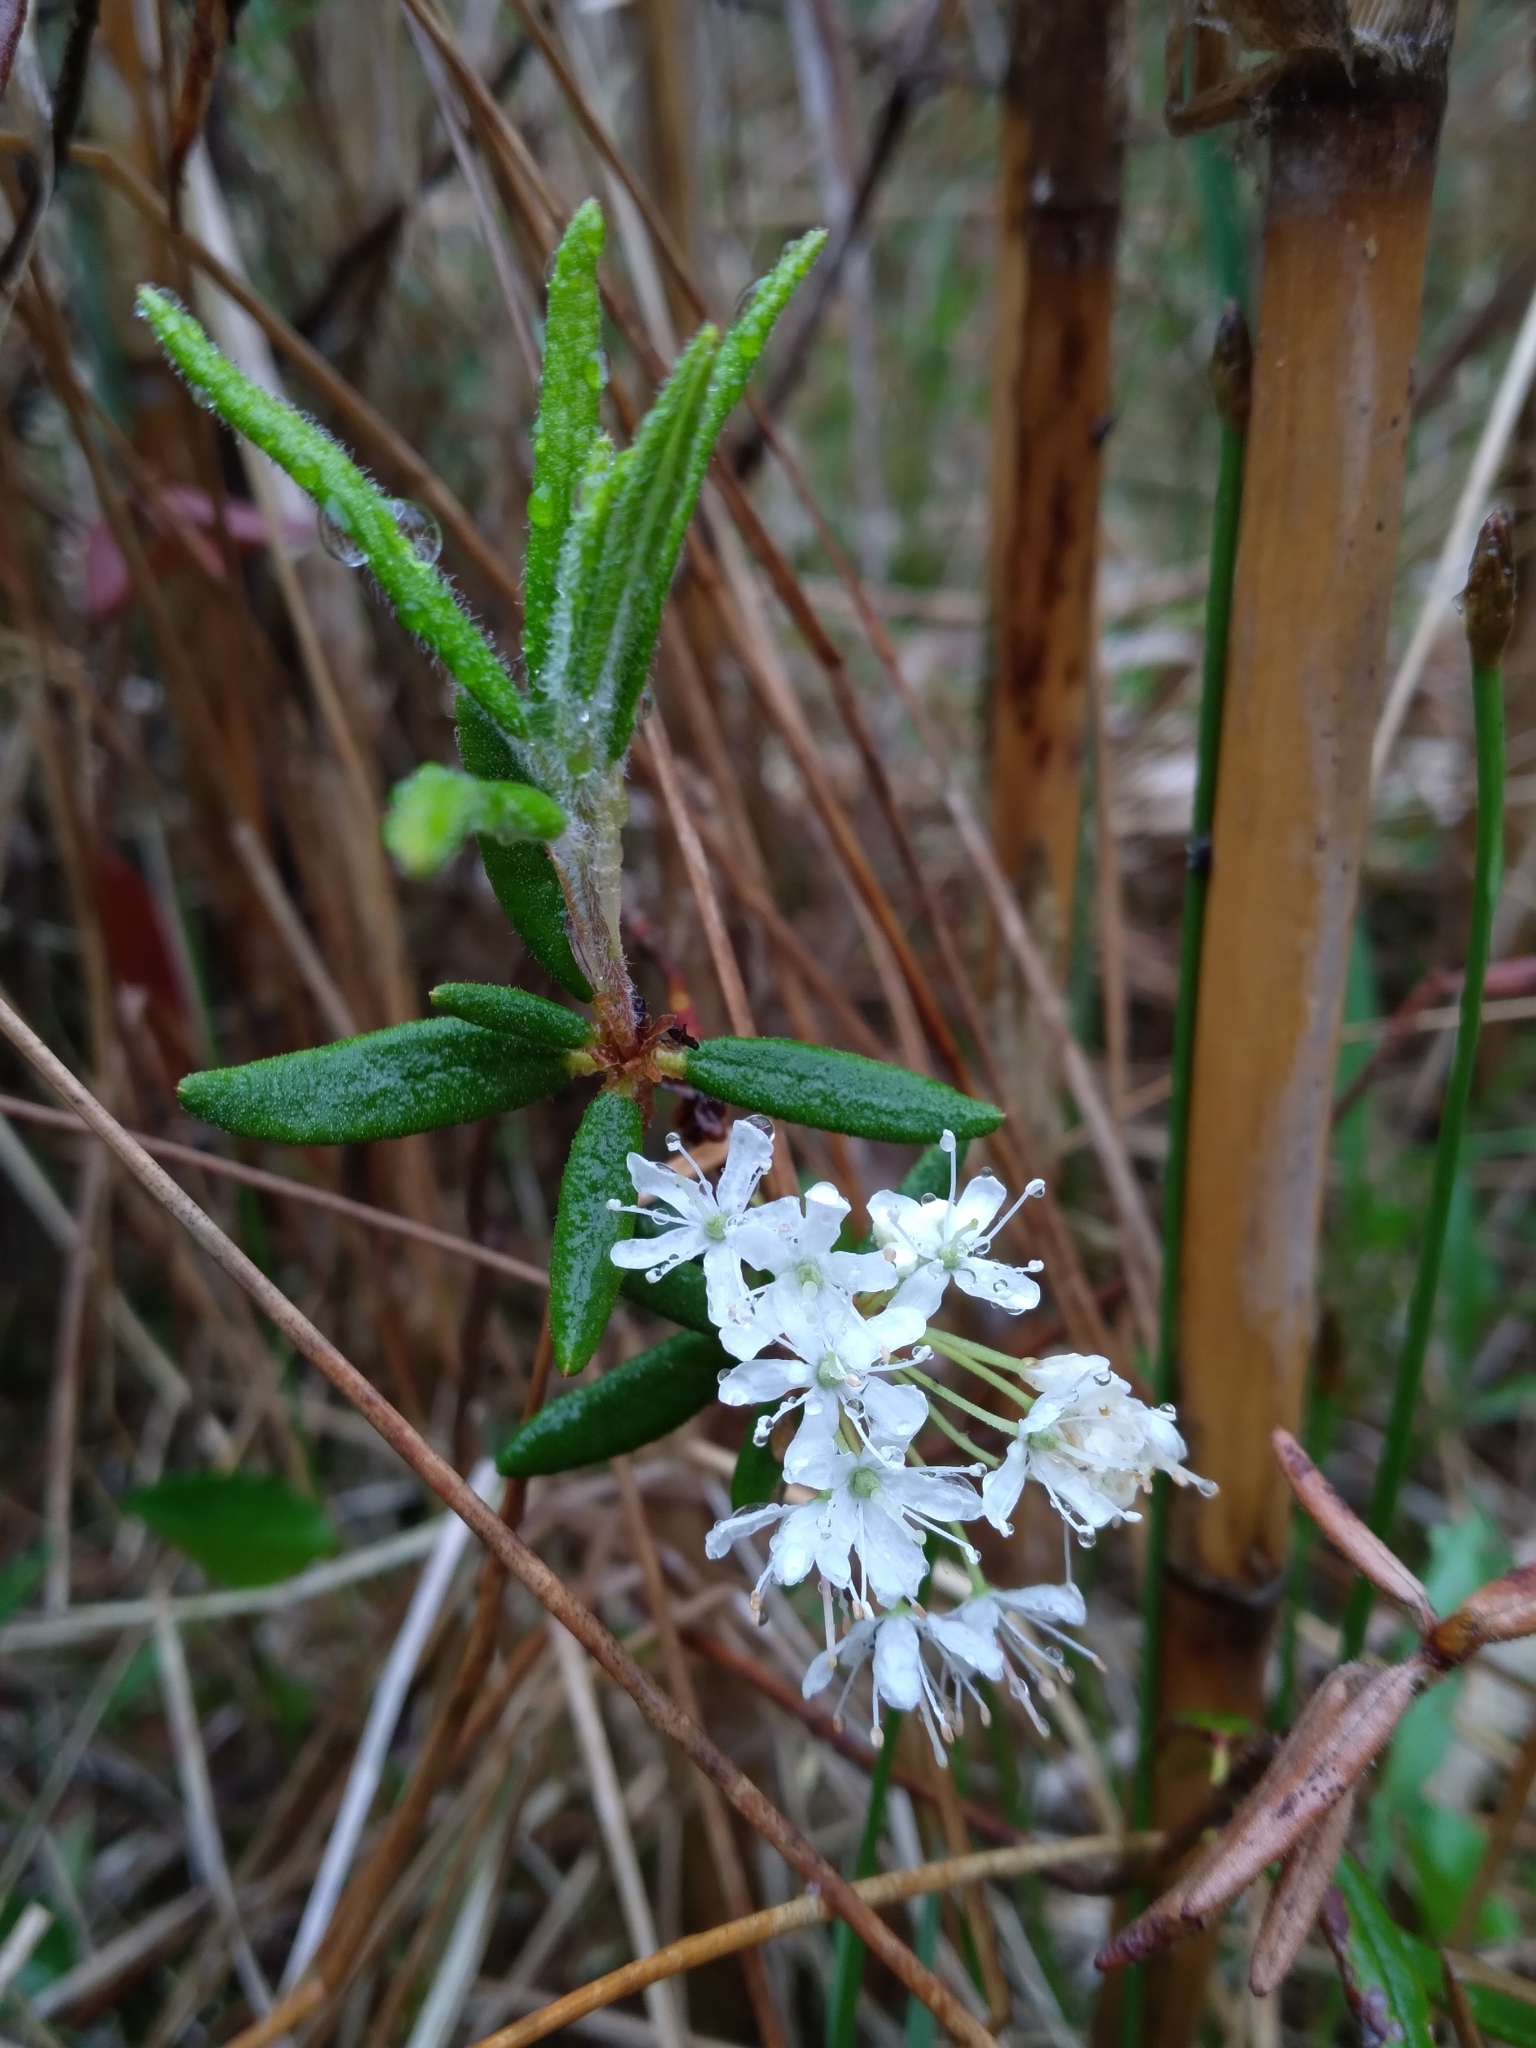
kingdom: Plantae
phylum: Tracheophyta
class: Magnoliopsida
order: Ericales
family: Ericaceae
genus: Rhododendron
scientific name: Rhododendron groenlandicum
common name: Bog labrador tea
